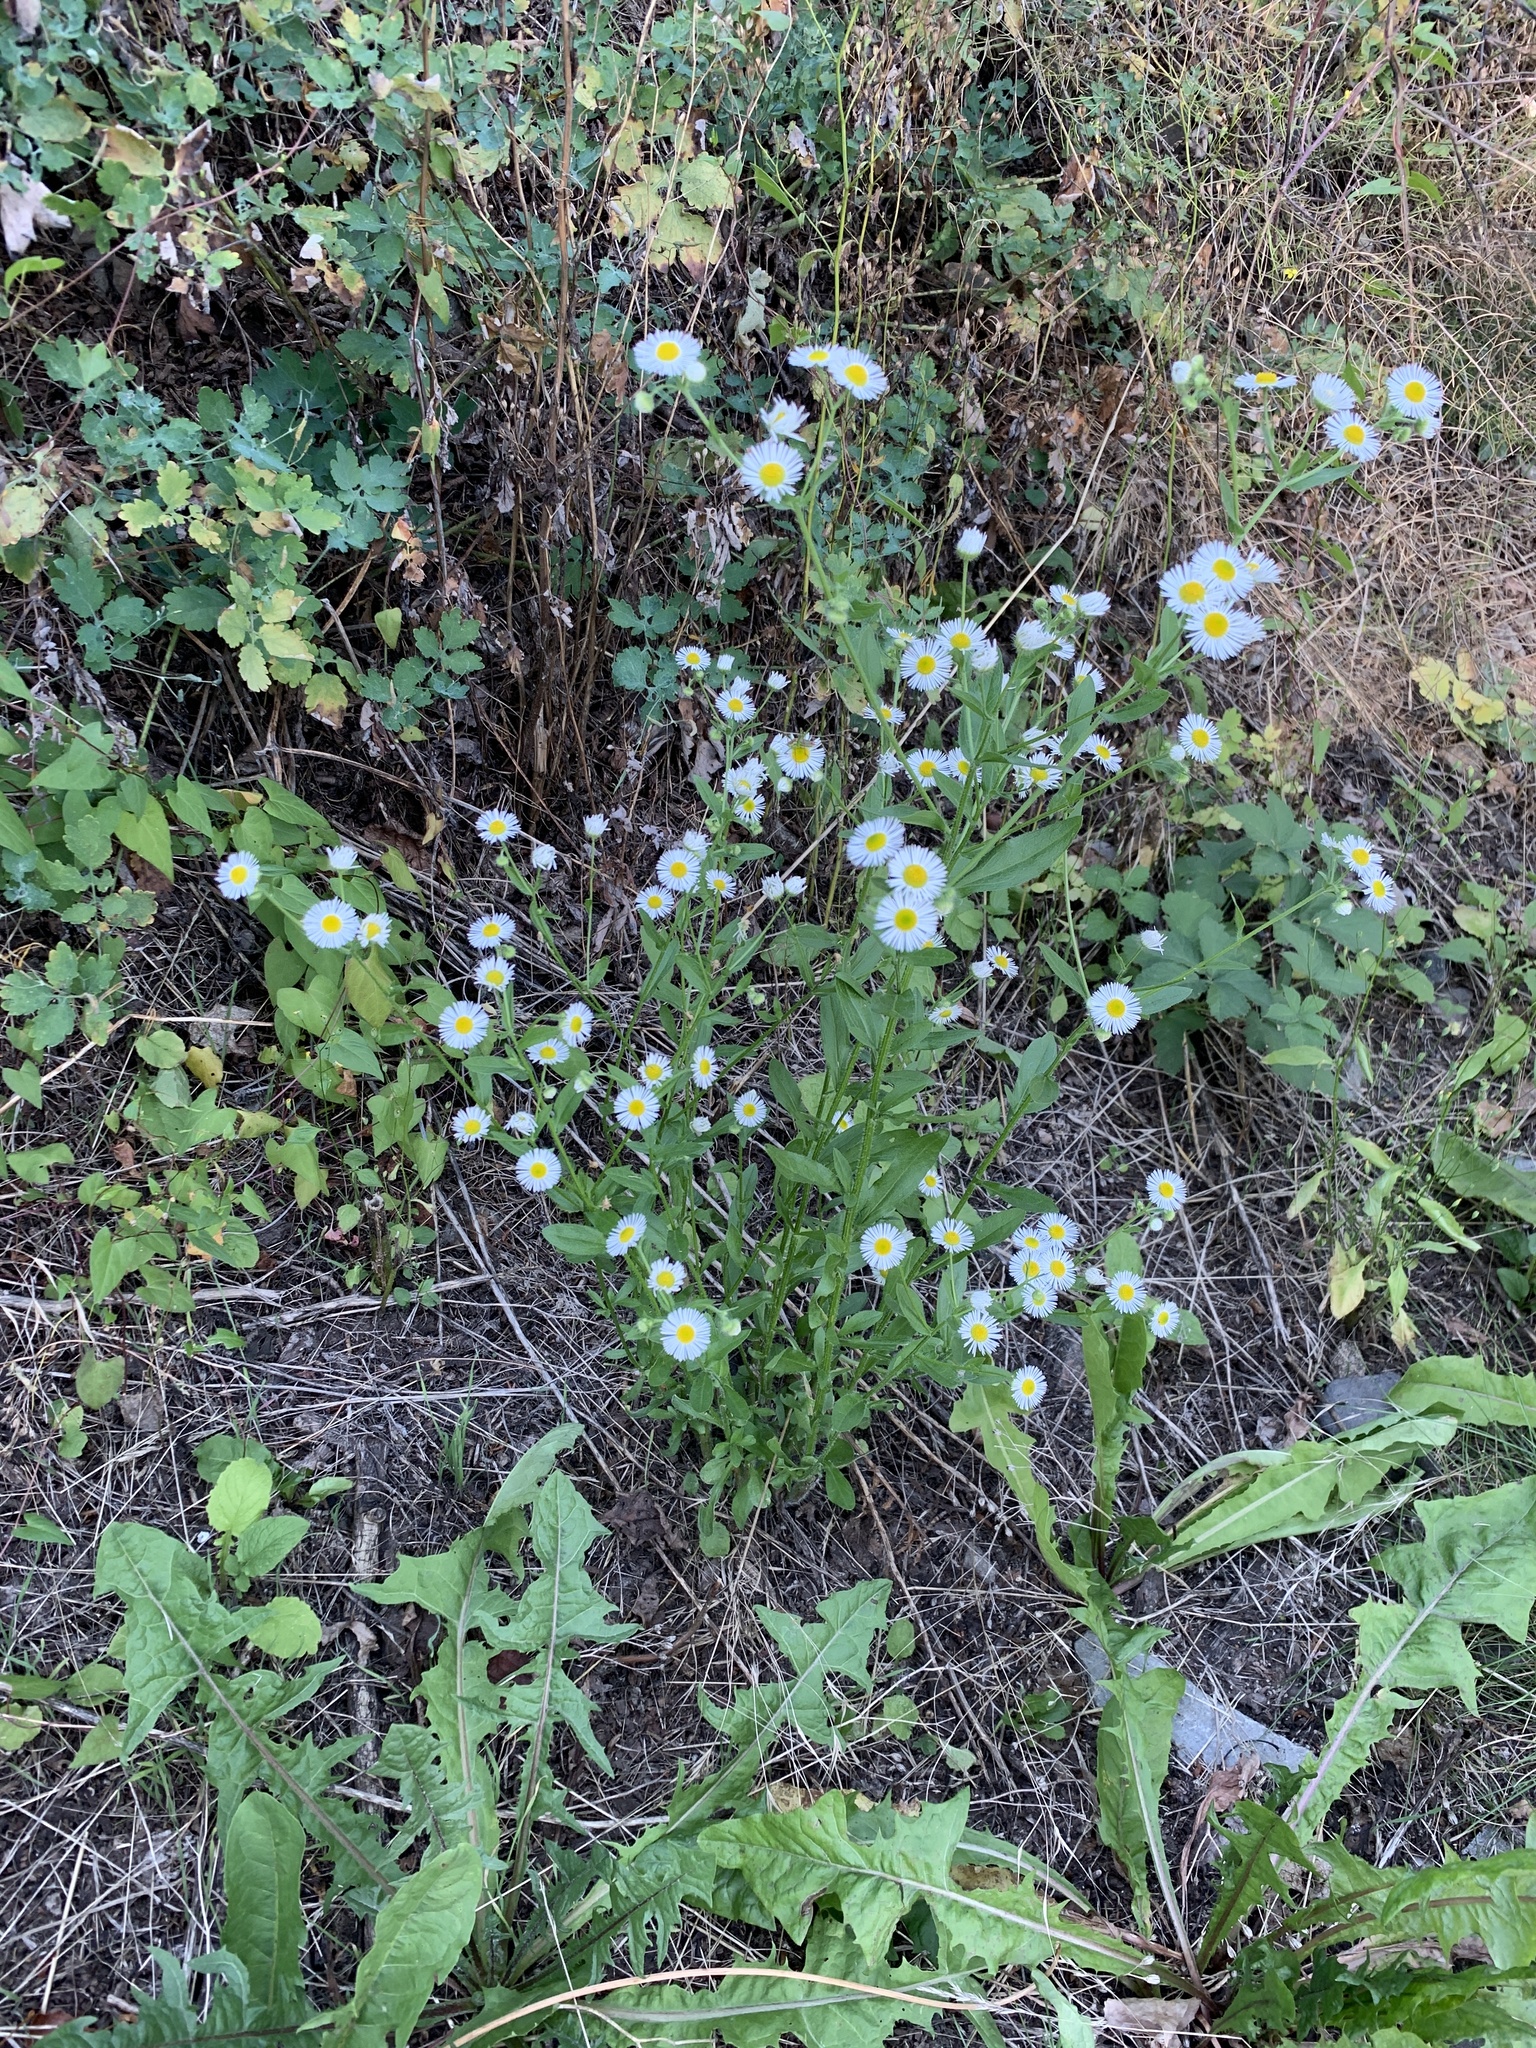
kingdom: Plantae
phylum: Tracheophyta
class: Magnoliopsida
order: Asterales
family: Asteraceae
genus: Erigeron
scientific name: Erigeron annuus
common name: Tall fleabane
